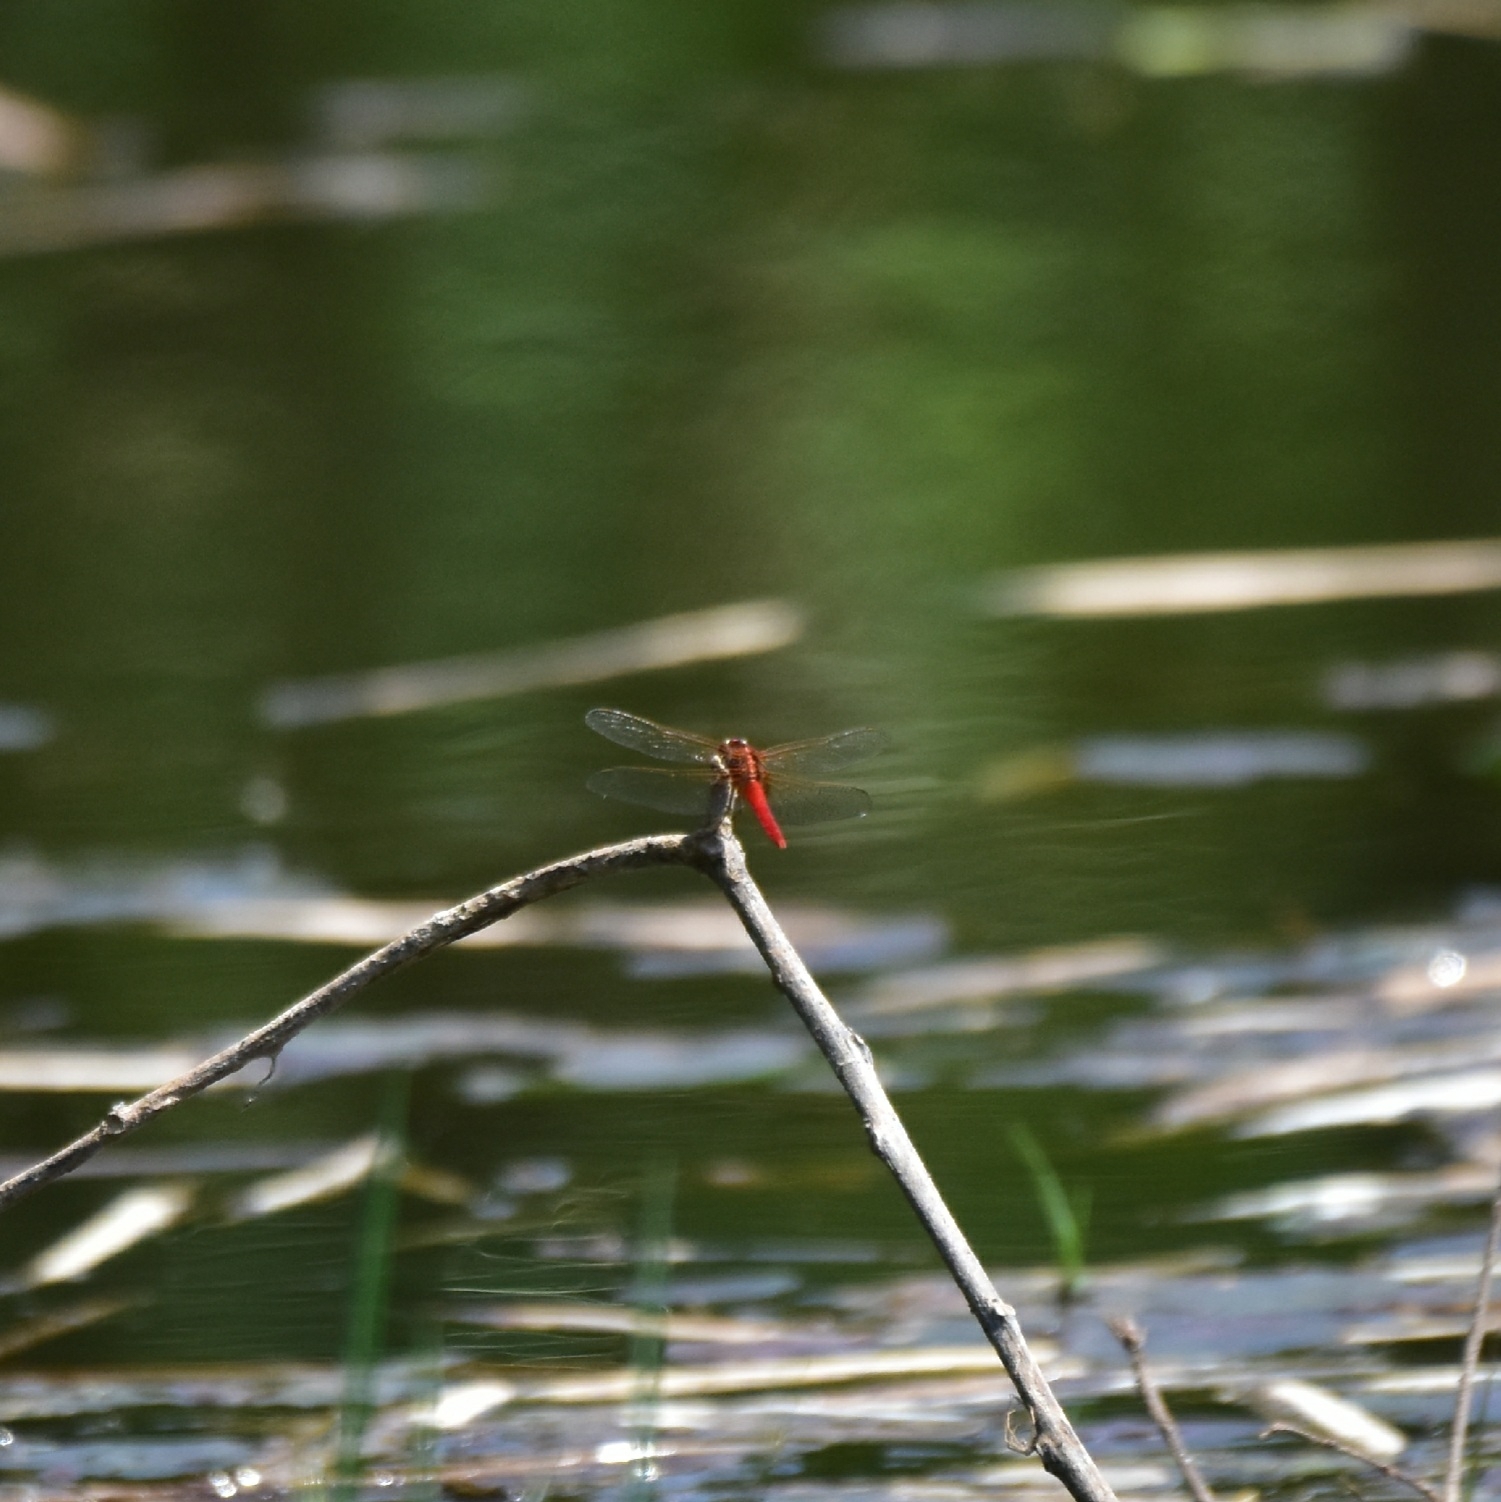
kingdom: Animalia
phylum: Arthropoda
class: Insecta
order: Odonata
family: Libellulidae
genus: Rhodothemis
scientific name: Rhodothemis rufa
